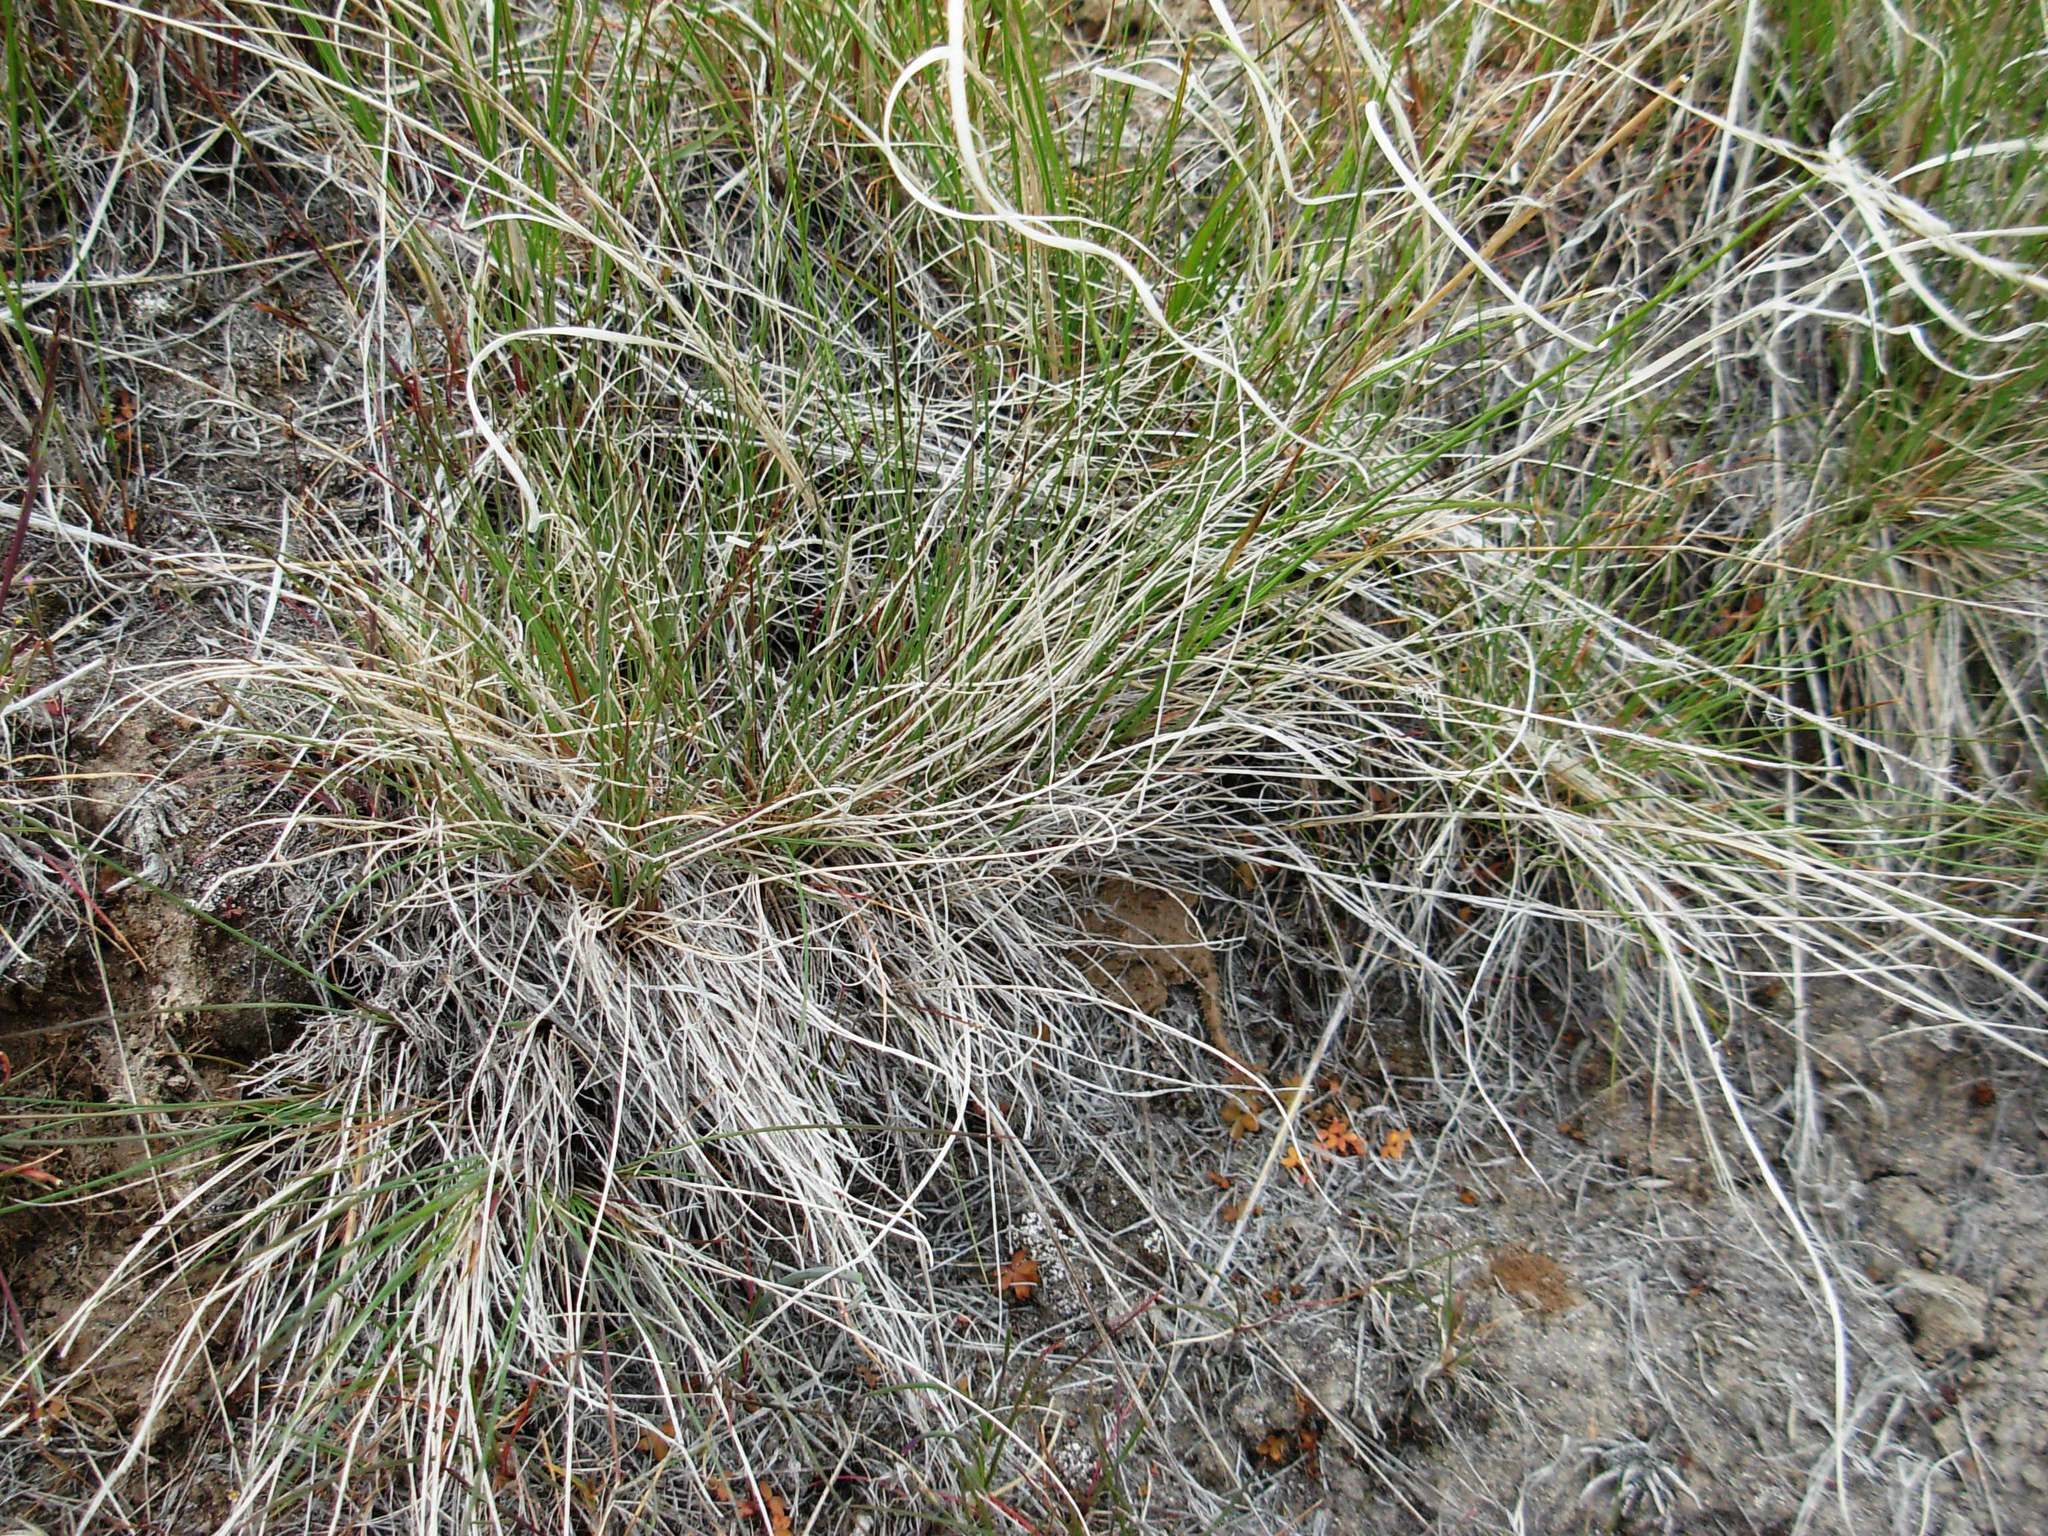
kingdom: Animalia
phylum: Chordata
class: Squamata
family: Phrynosomatidae
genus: Phrynosoma
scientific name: Phrynosoma douglasii
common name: Short-horned lizard
